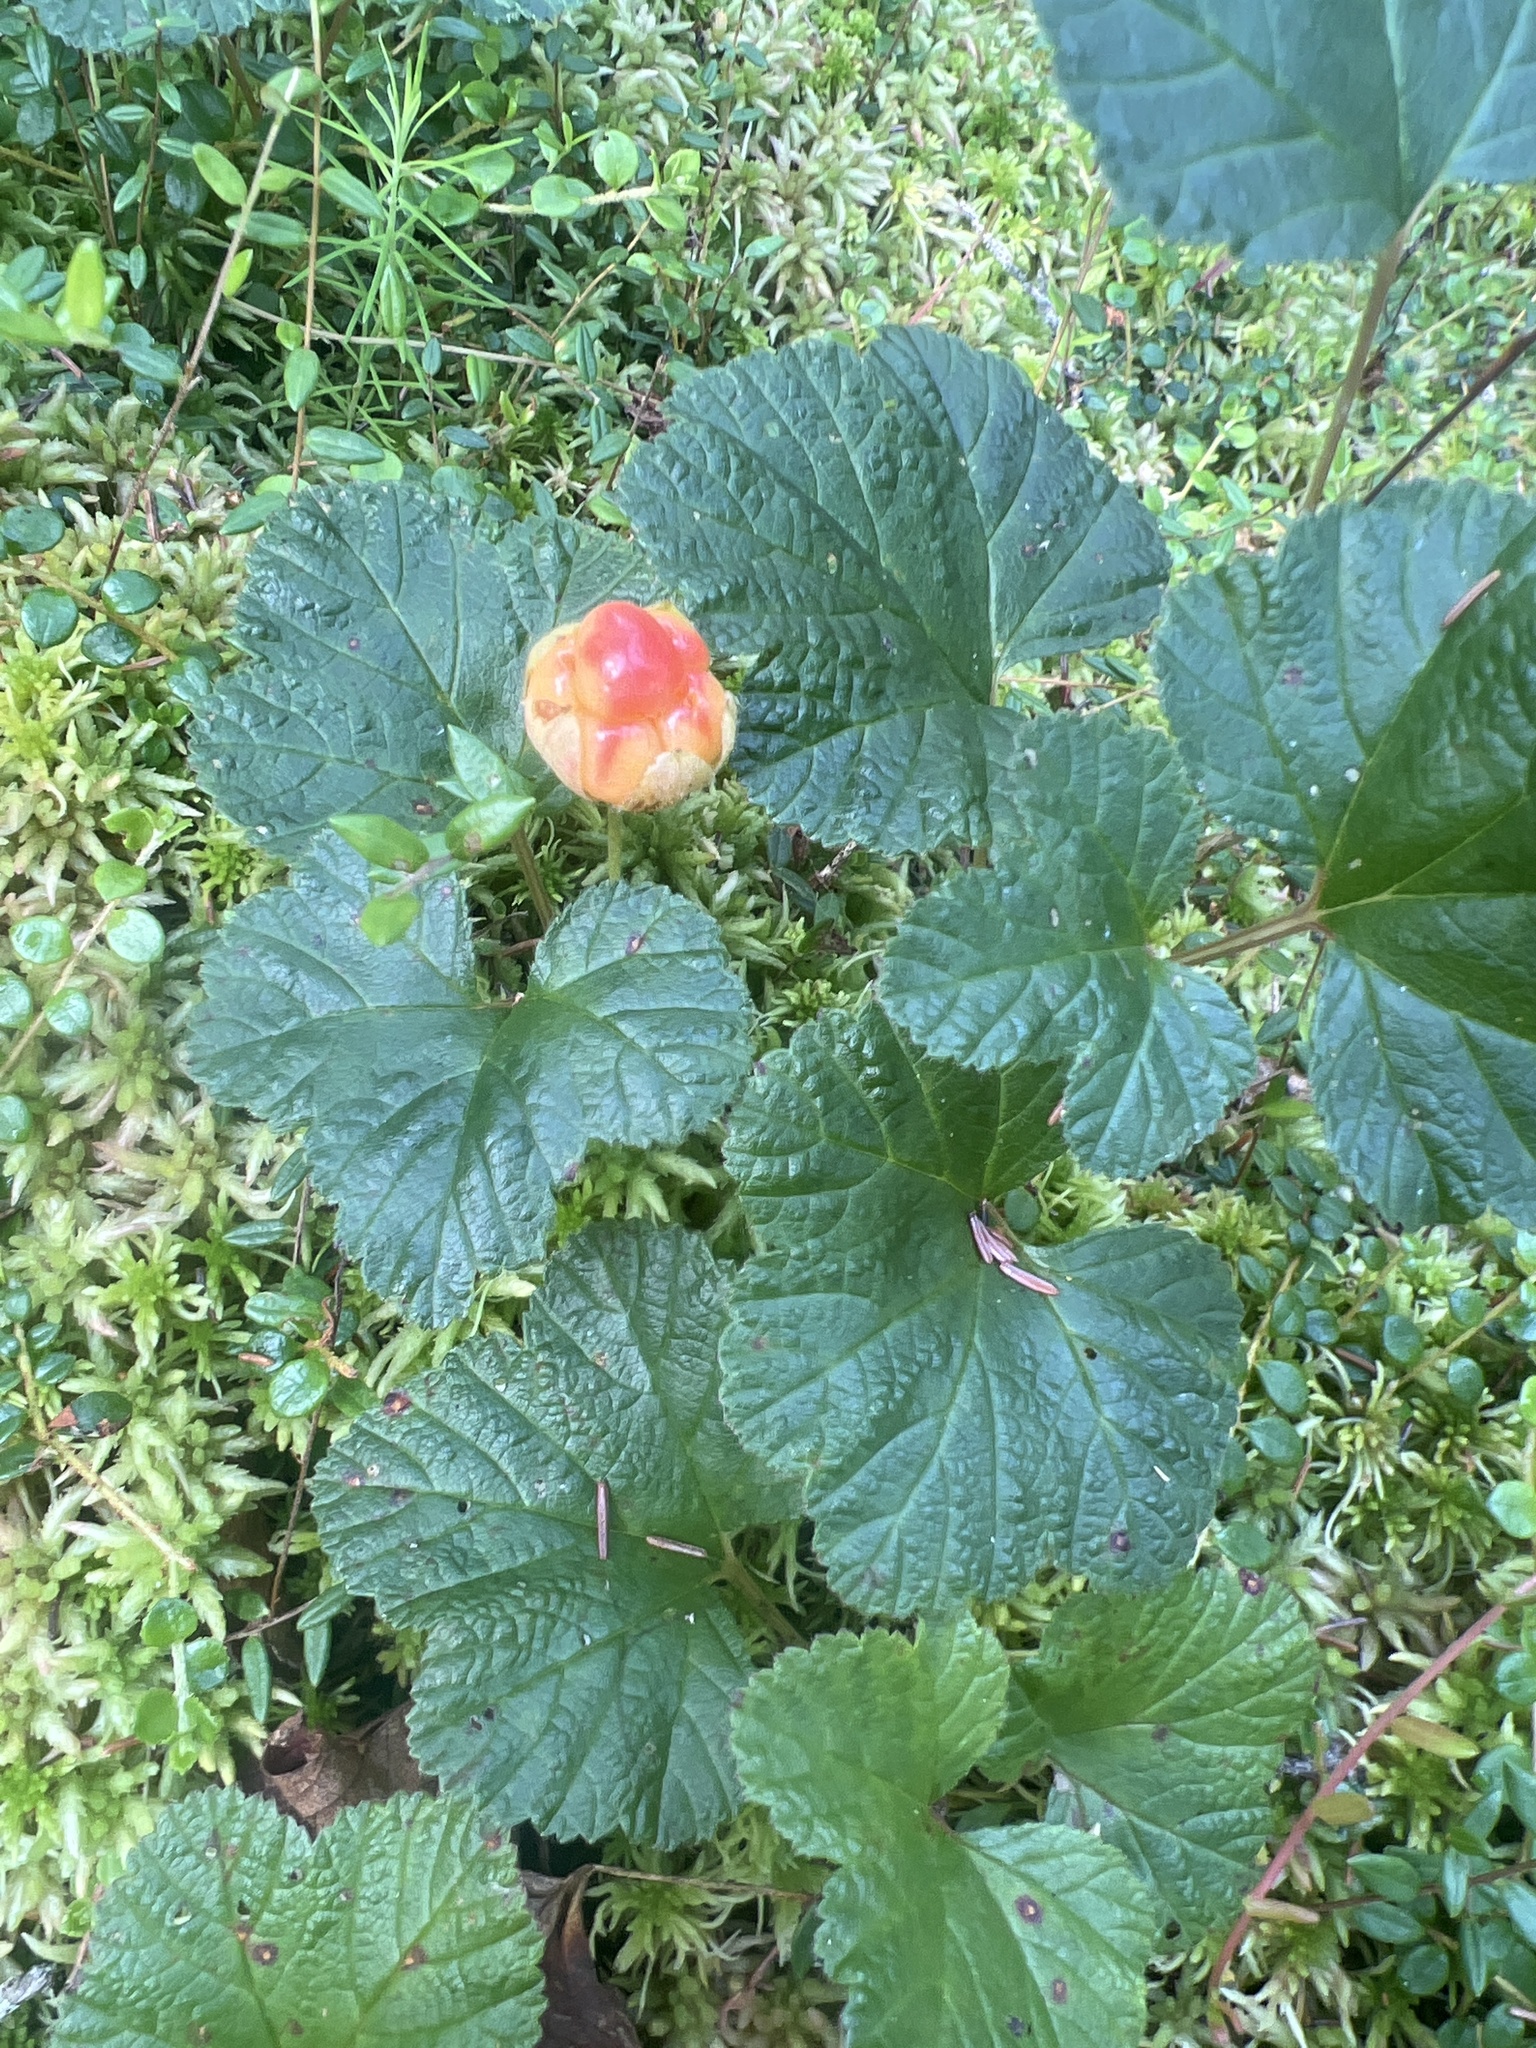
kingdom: Plantae
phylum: Tracheophyta
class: Magnoliopsida
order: Rosales
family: Rosaceae
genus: Rubus
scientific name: Rubus chamaemorus
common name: Cloudberry
